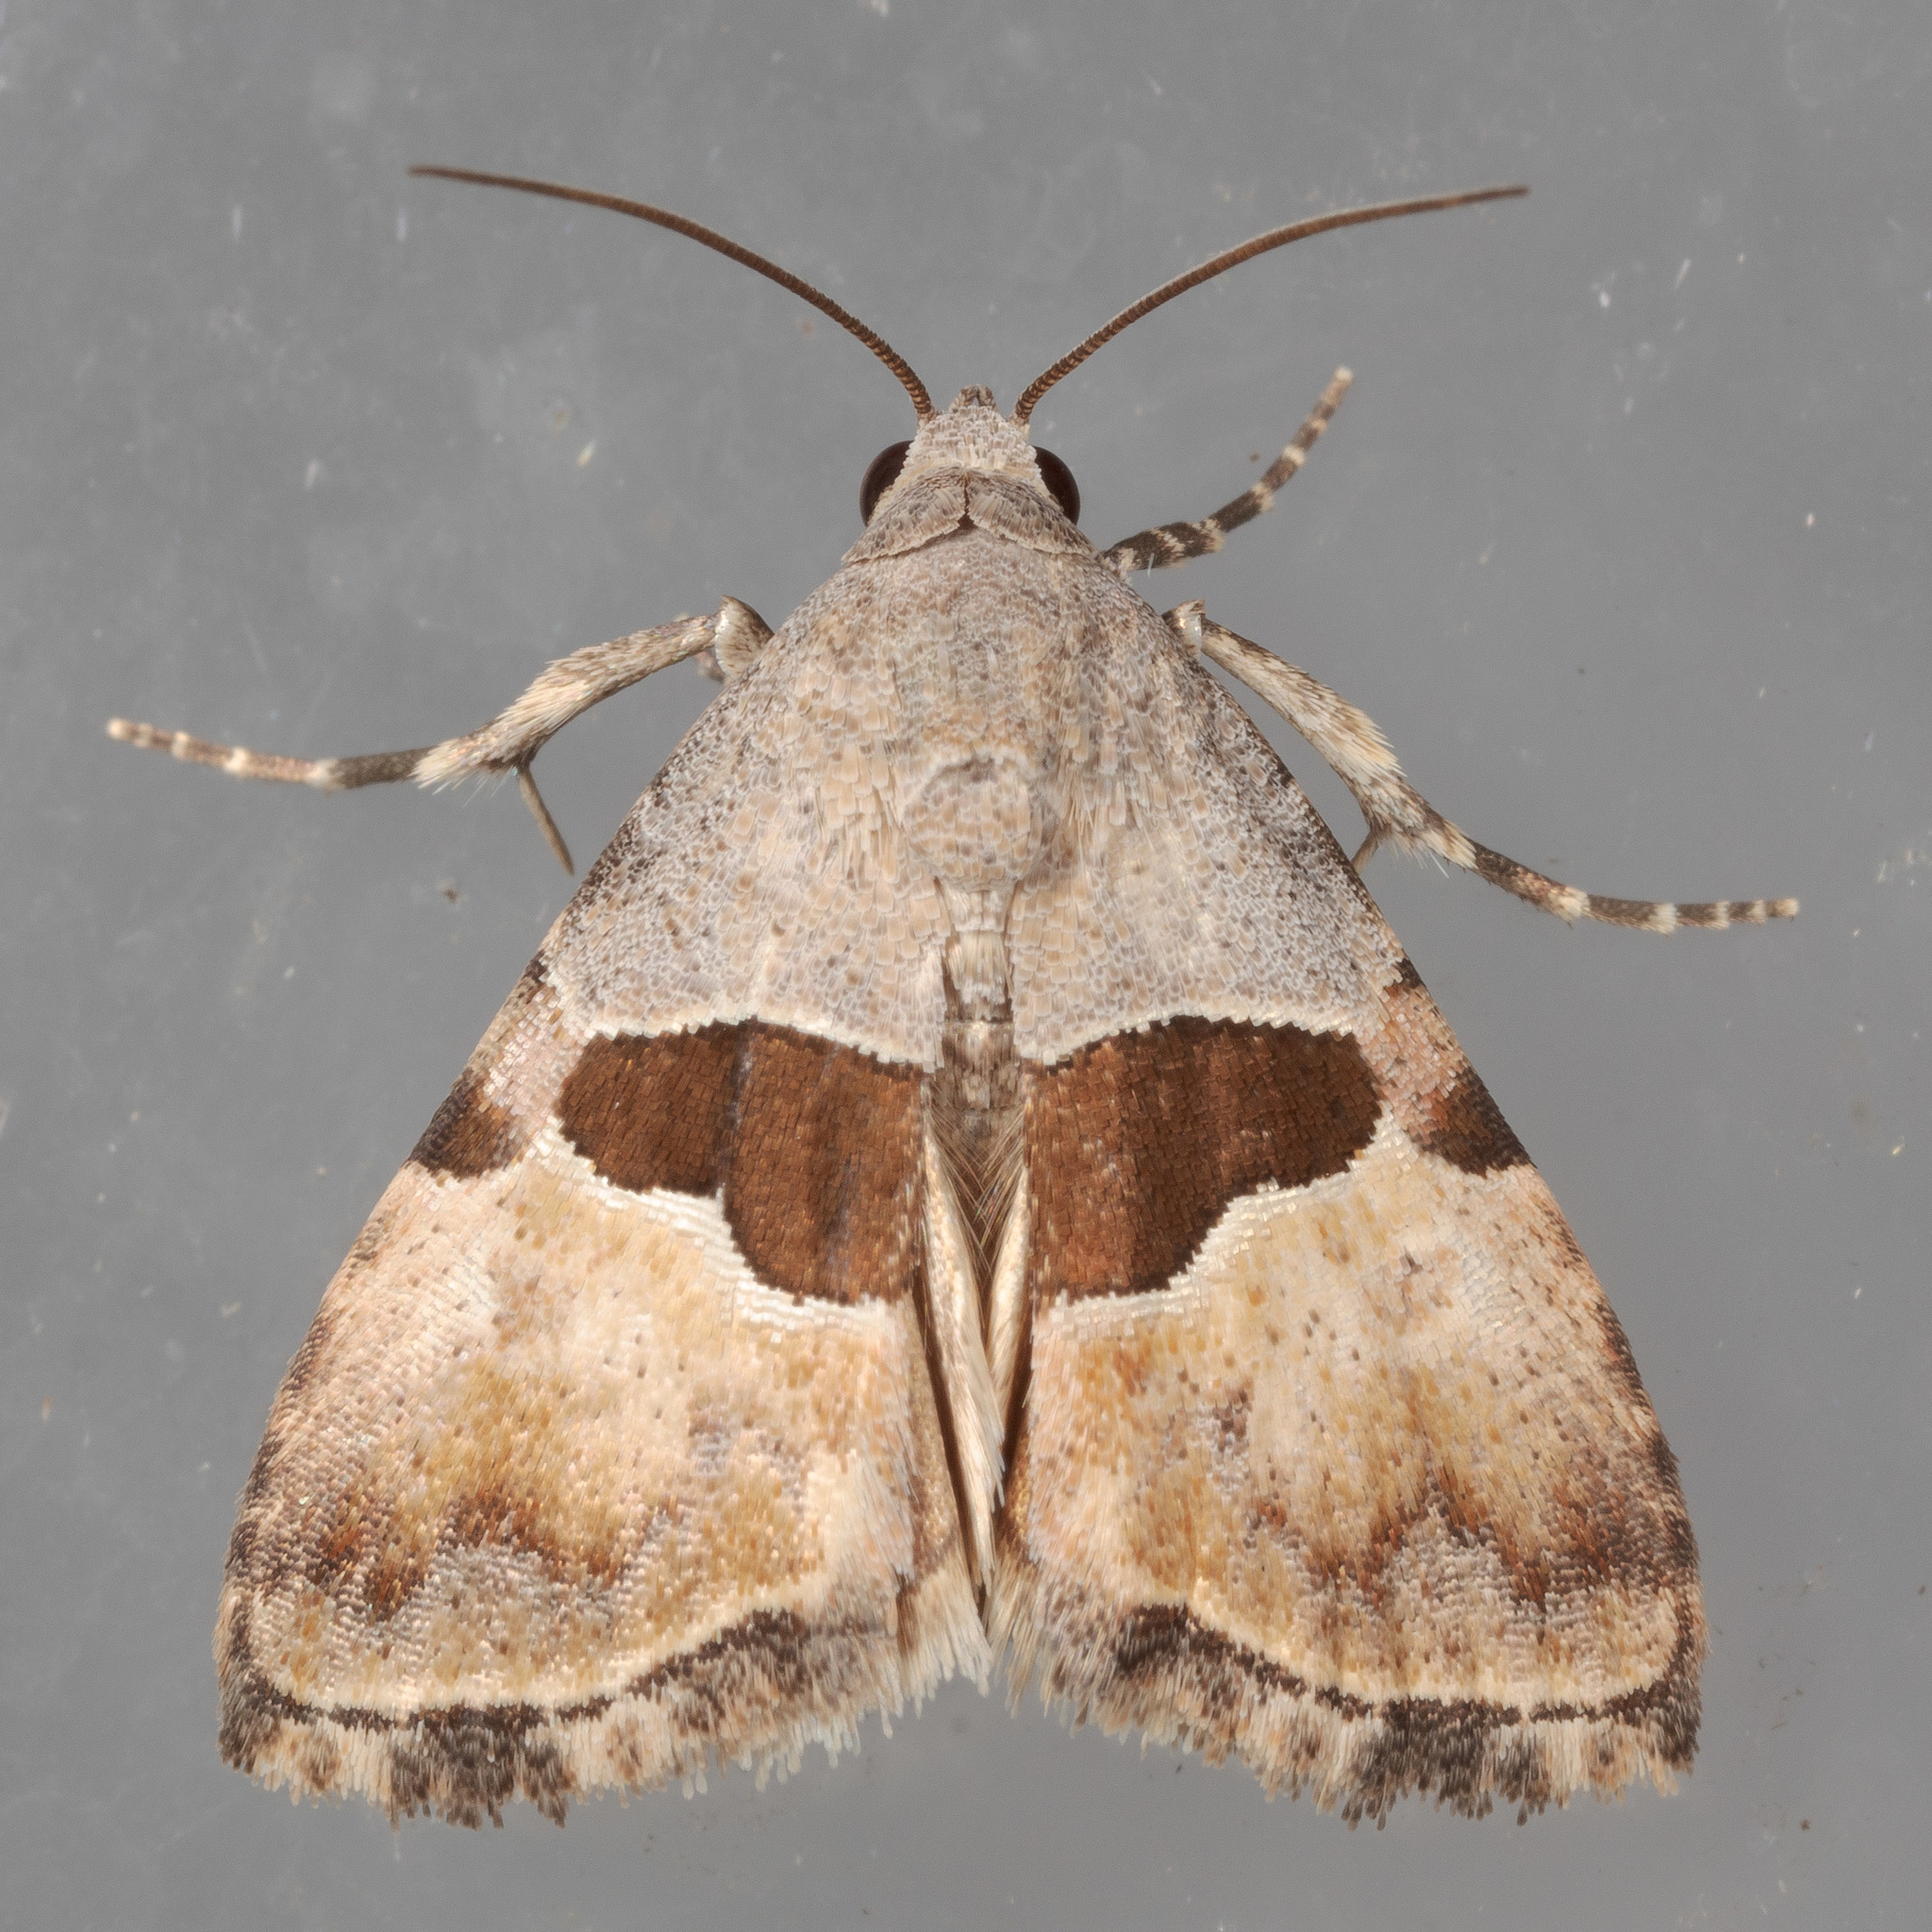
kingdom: Animalia
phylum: Arthropoda
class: Insecta
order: Lepidoptera
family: Noctuidae
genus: Cobubatha
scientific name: Cobubatha lixiva
